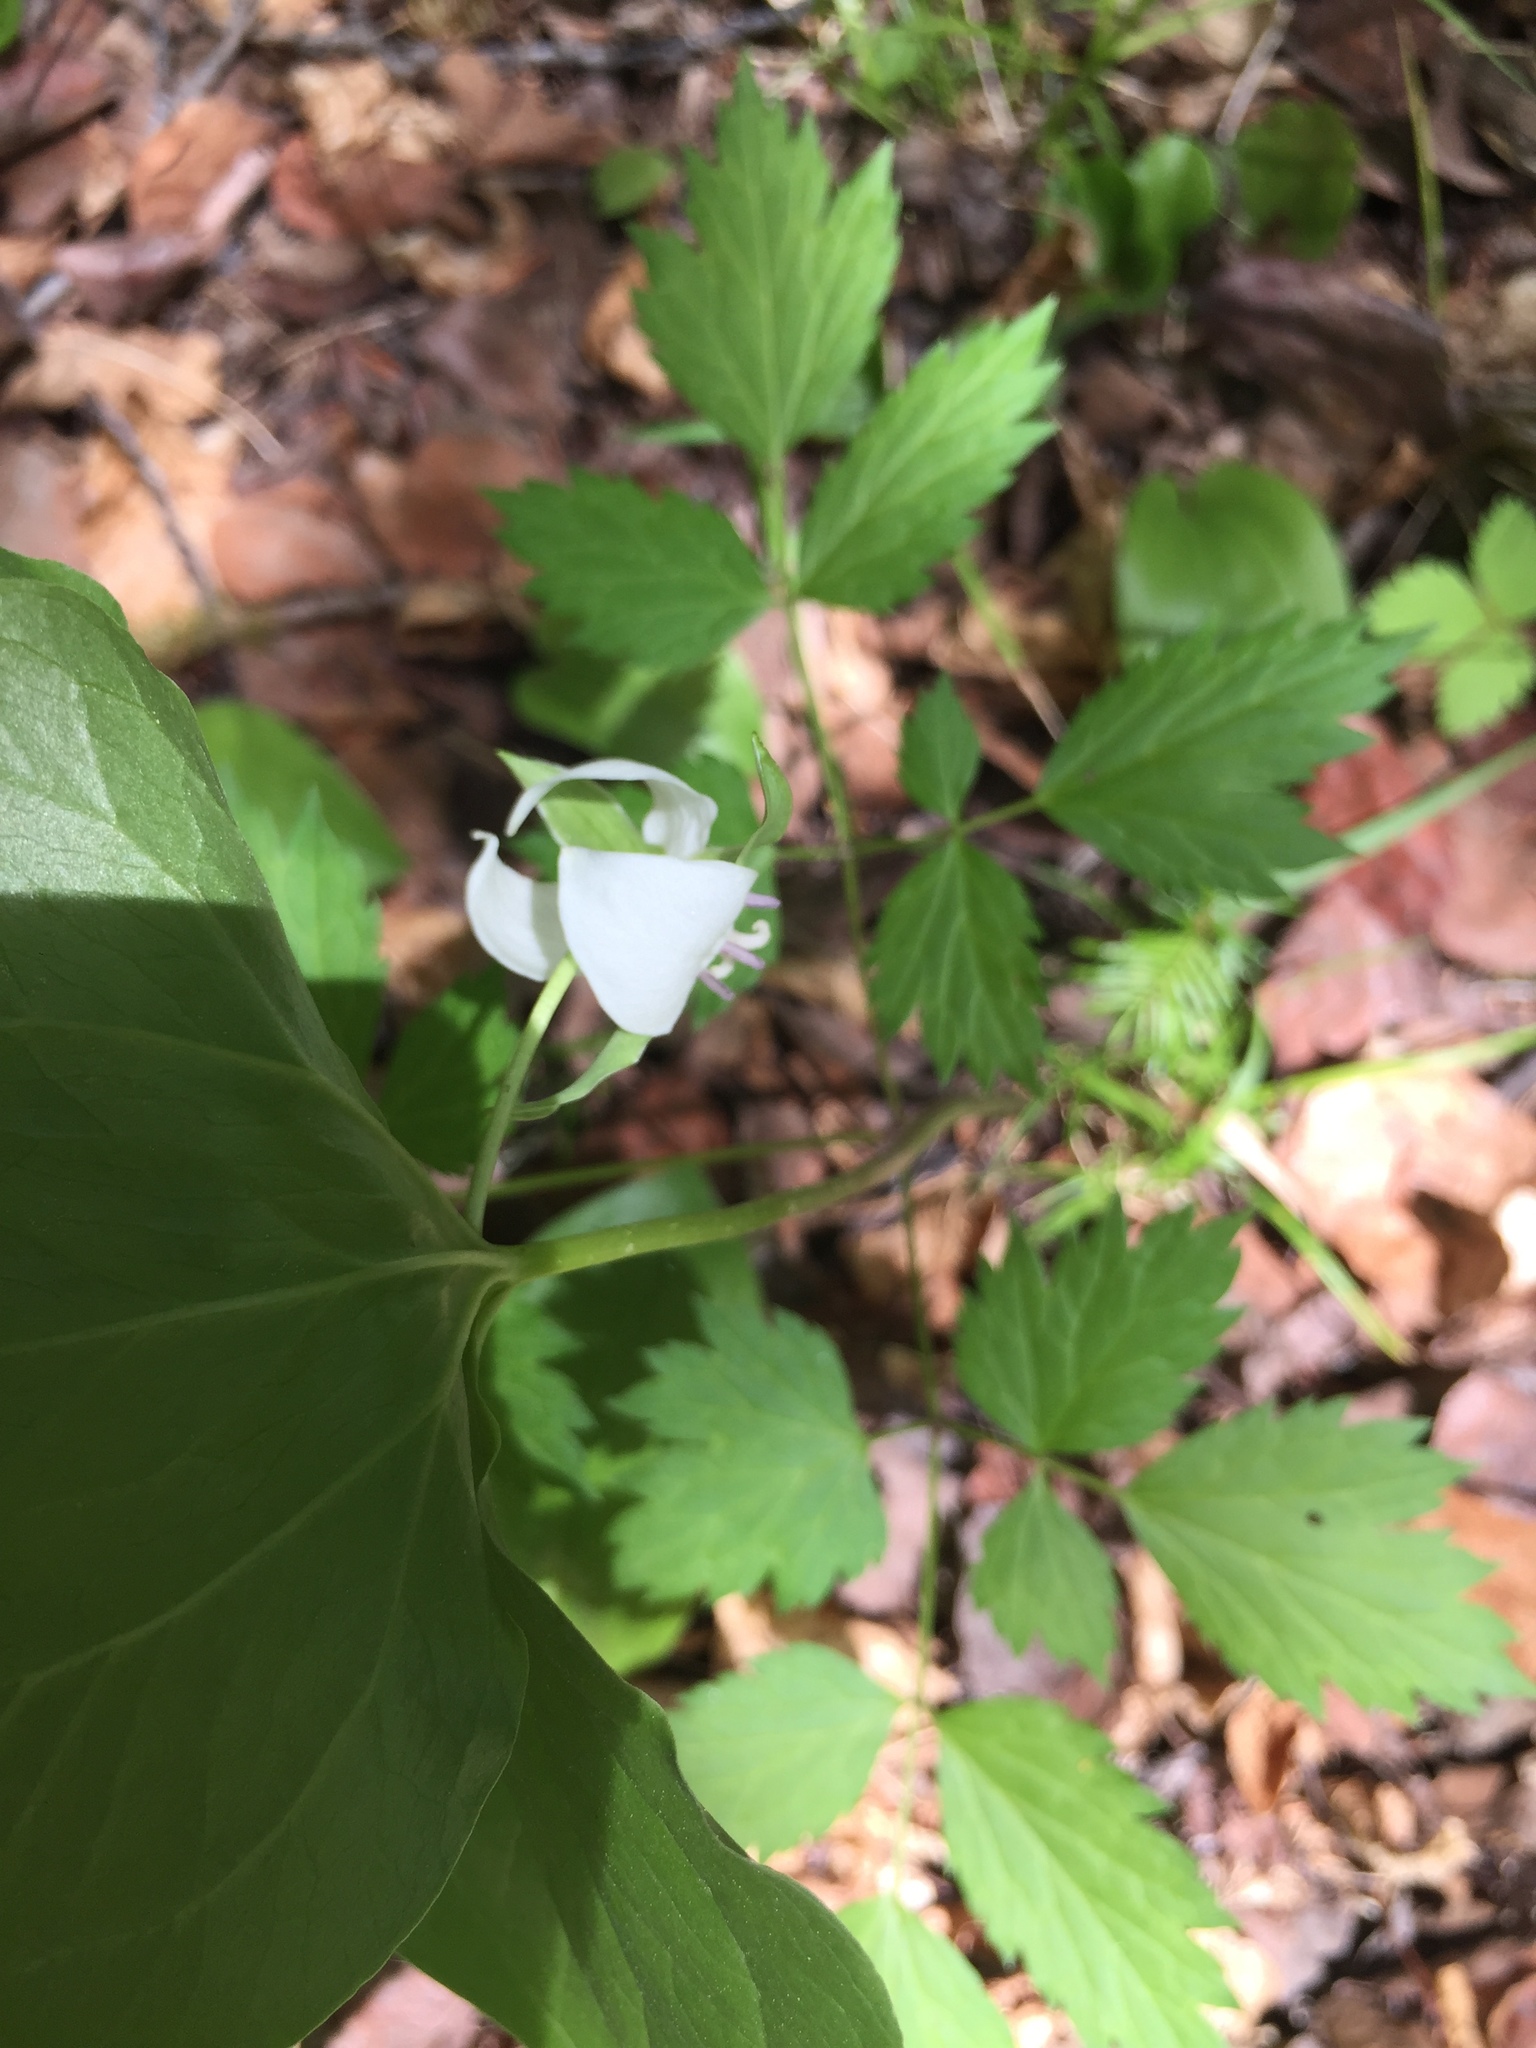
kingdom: Plantae
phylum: Tracheophyta
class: Liliopsida
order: Liliales
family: Melanthiaceae
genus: Trillium
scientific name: Trillium cernuum
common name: Nodding trillium
